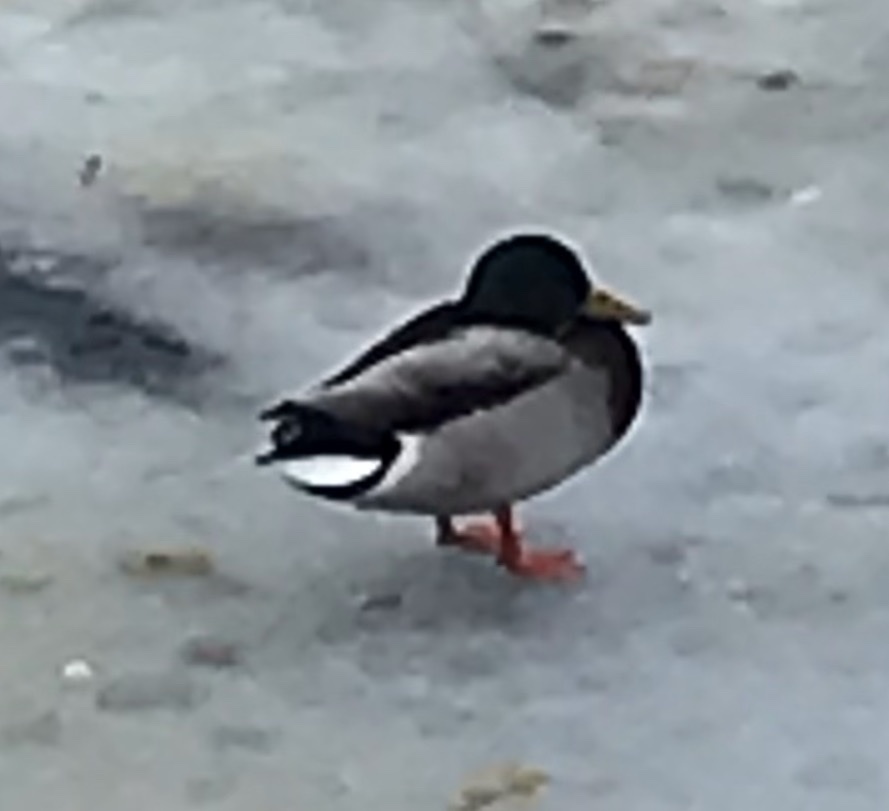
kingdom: Animalia
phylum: Chordata
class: Aves
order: Anseriformes
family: Anatidae
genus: Anas
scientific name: Anas platyrhynchos
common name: Mallard
